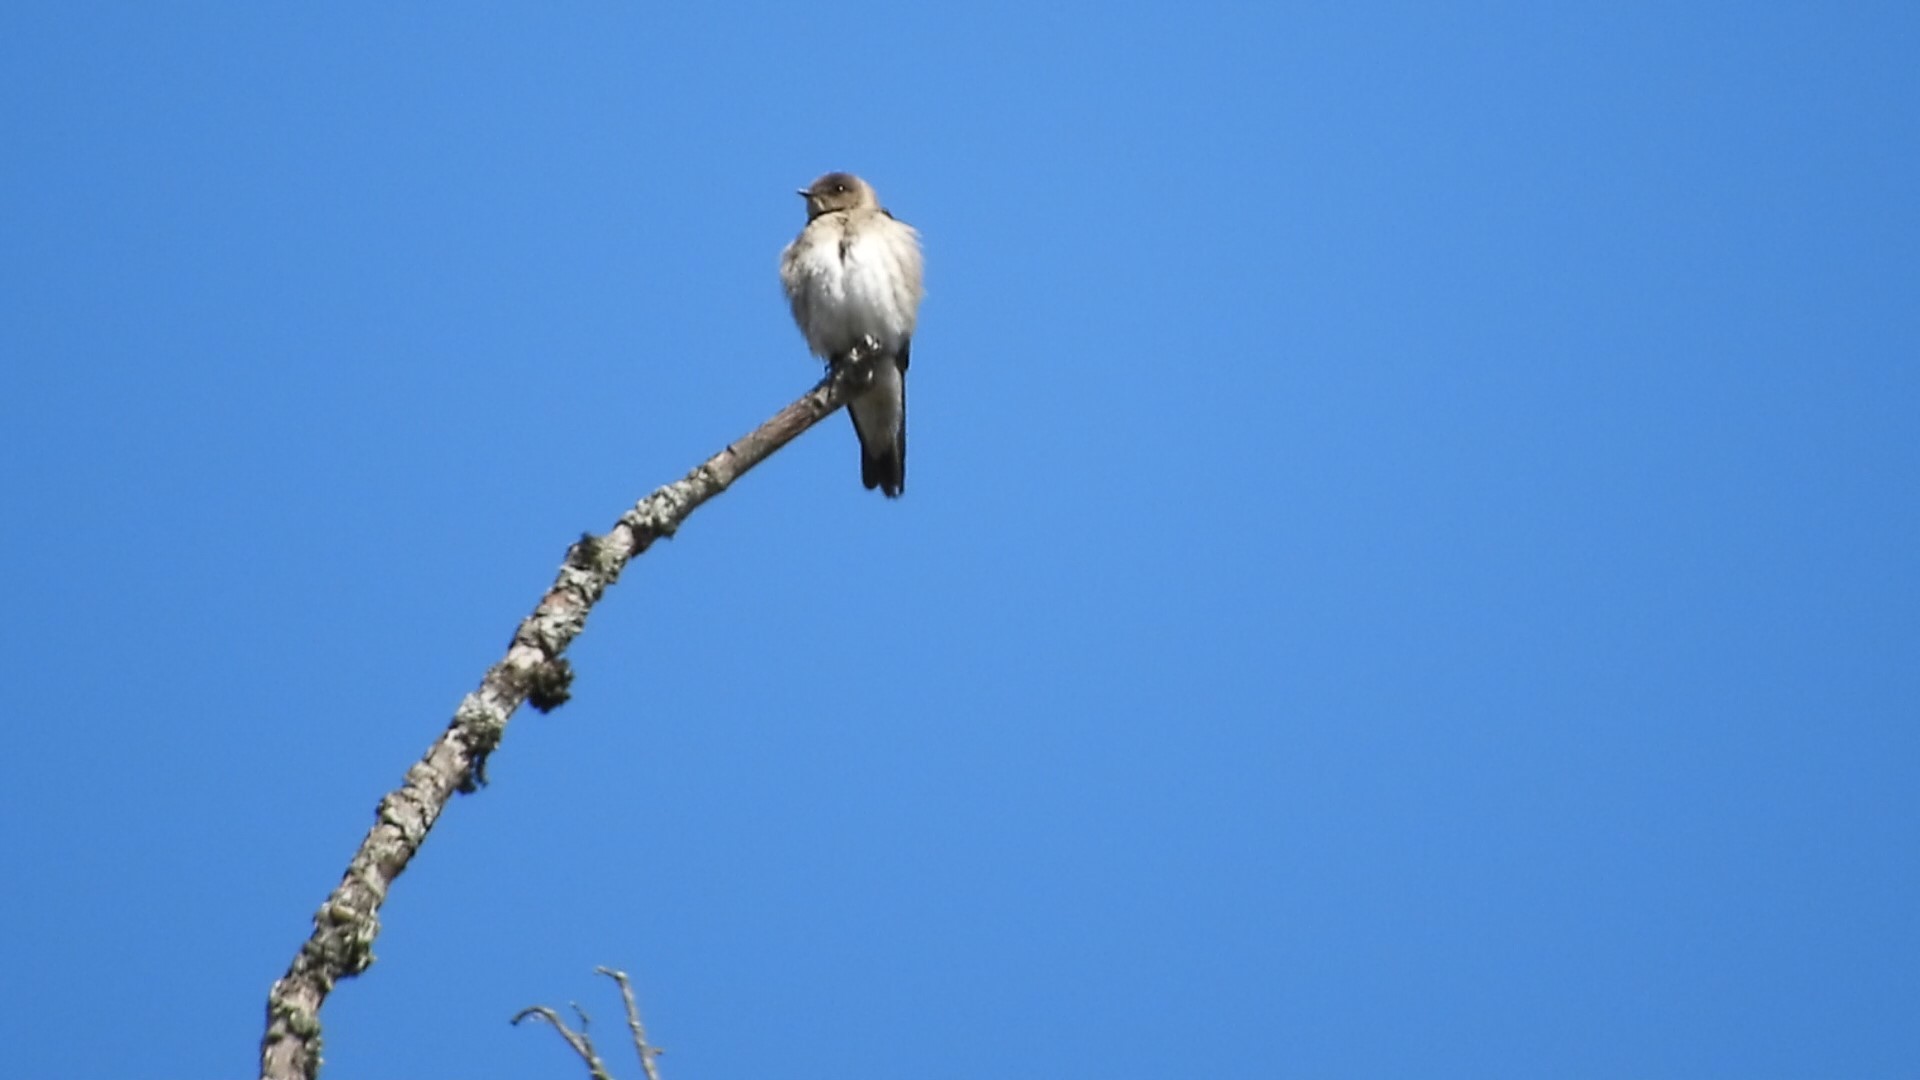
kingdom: Animalia
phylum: Chordata
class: Aves
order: Passeriformes
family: Hirundinidae
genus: Stelgidopteryx
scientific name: Stelgidopteryx serripennis
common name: Northern rough-winged swallow
